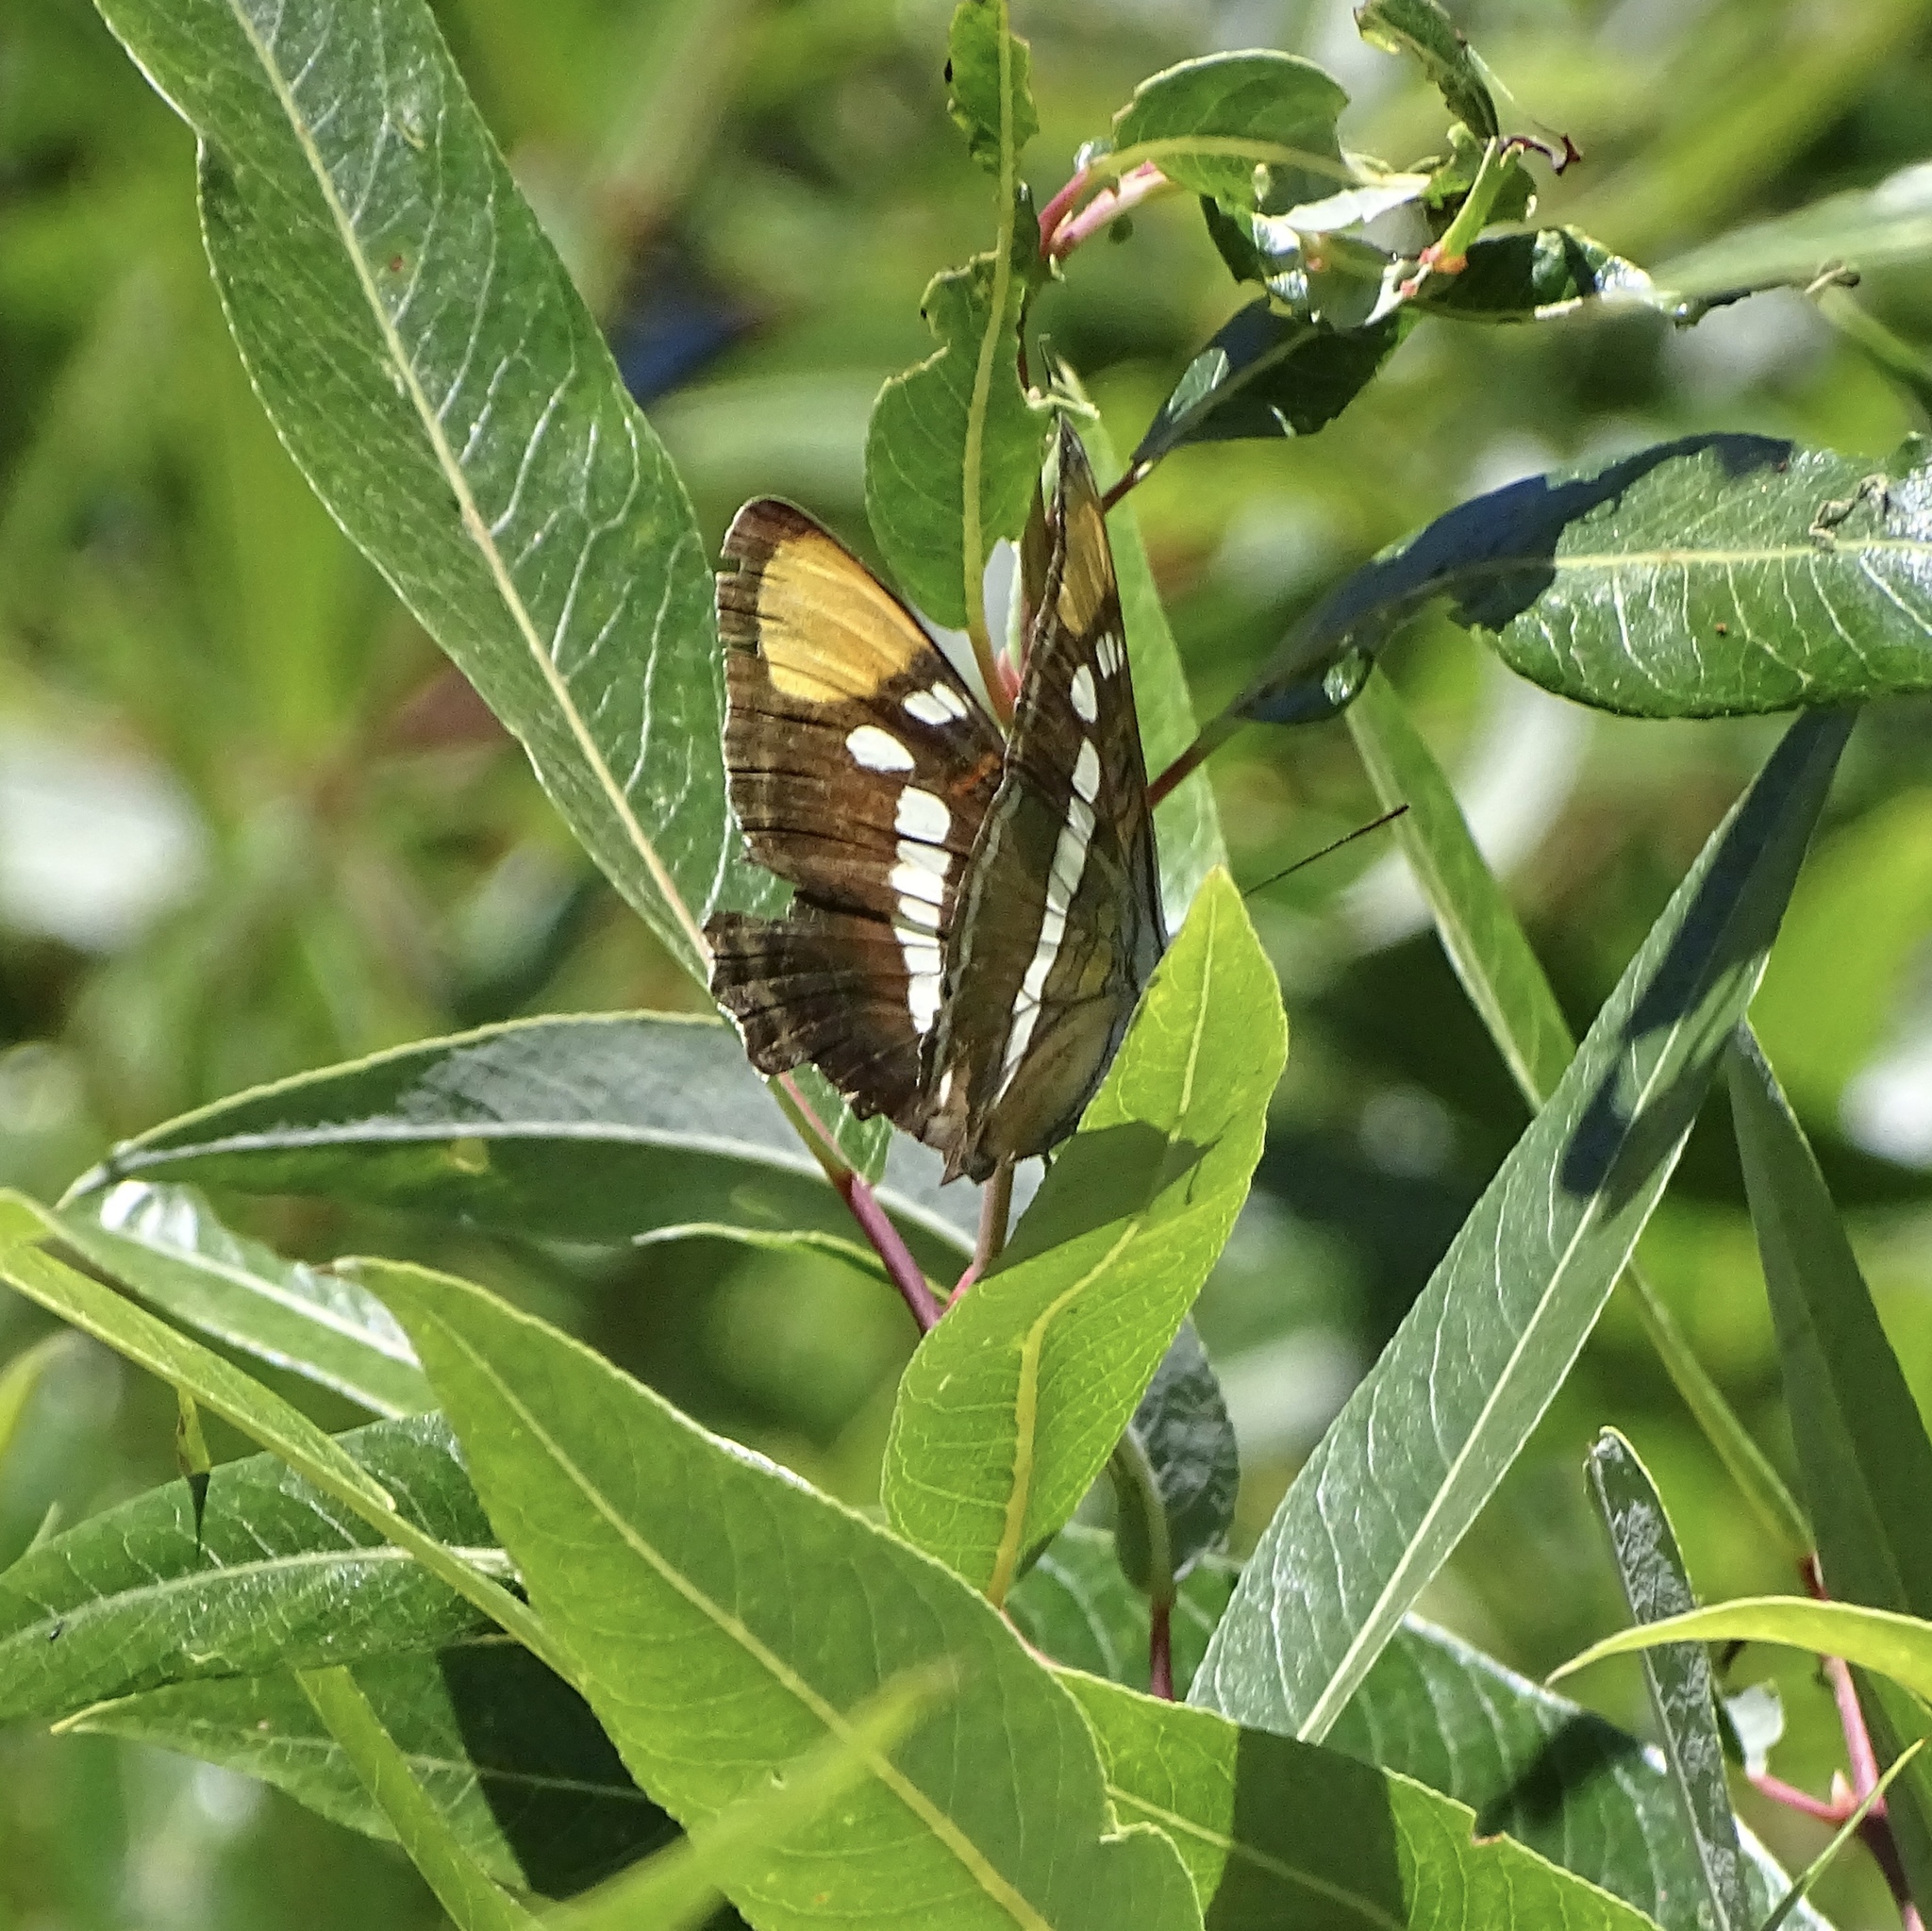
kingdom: Animalia
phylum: Arthropoda
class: Insecta
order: Lepidoptera
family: Nymphalidae
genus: Limenitis
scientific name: Limenitis bredowii
